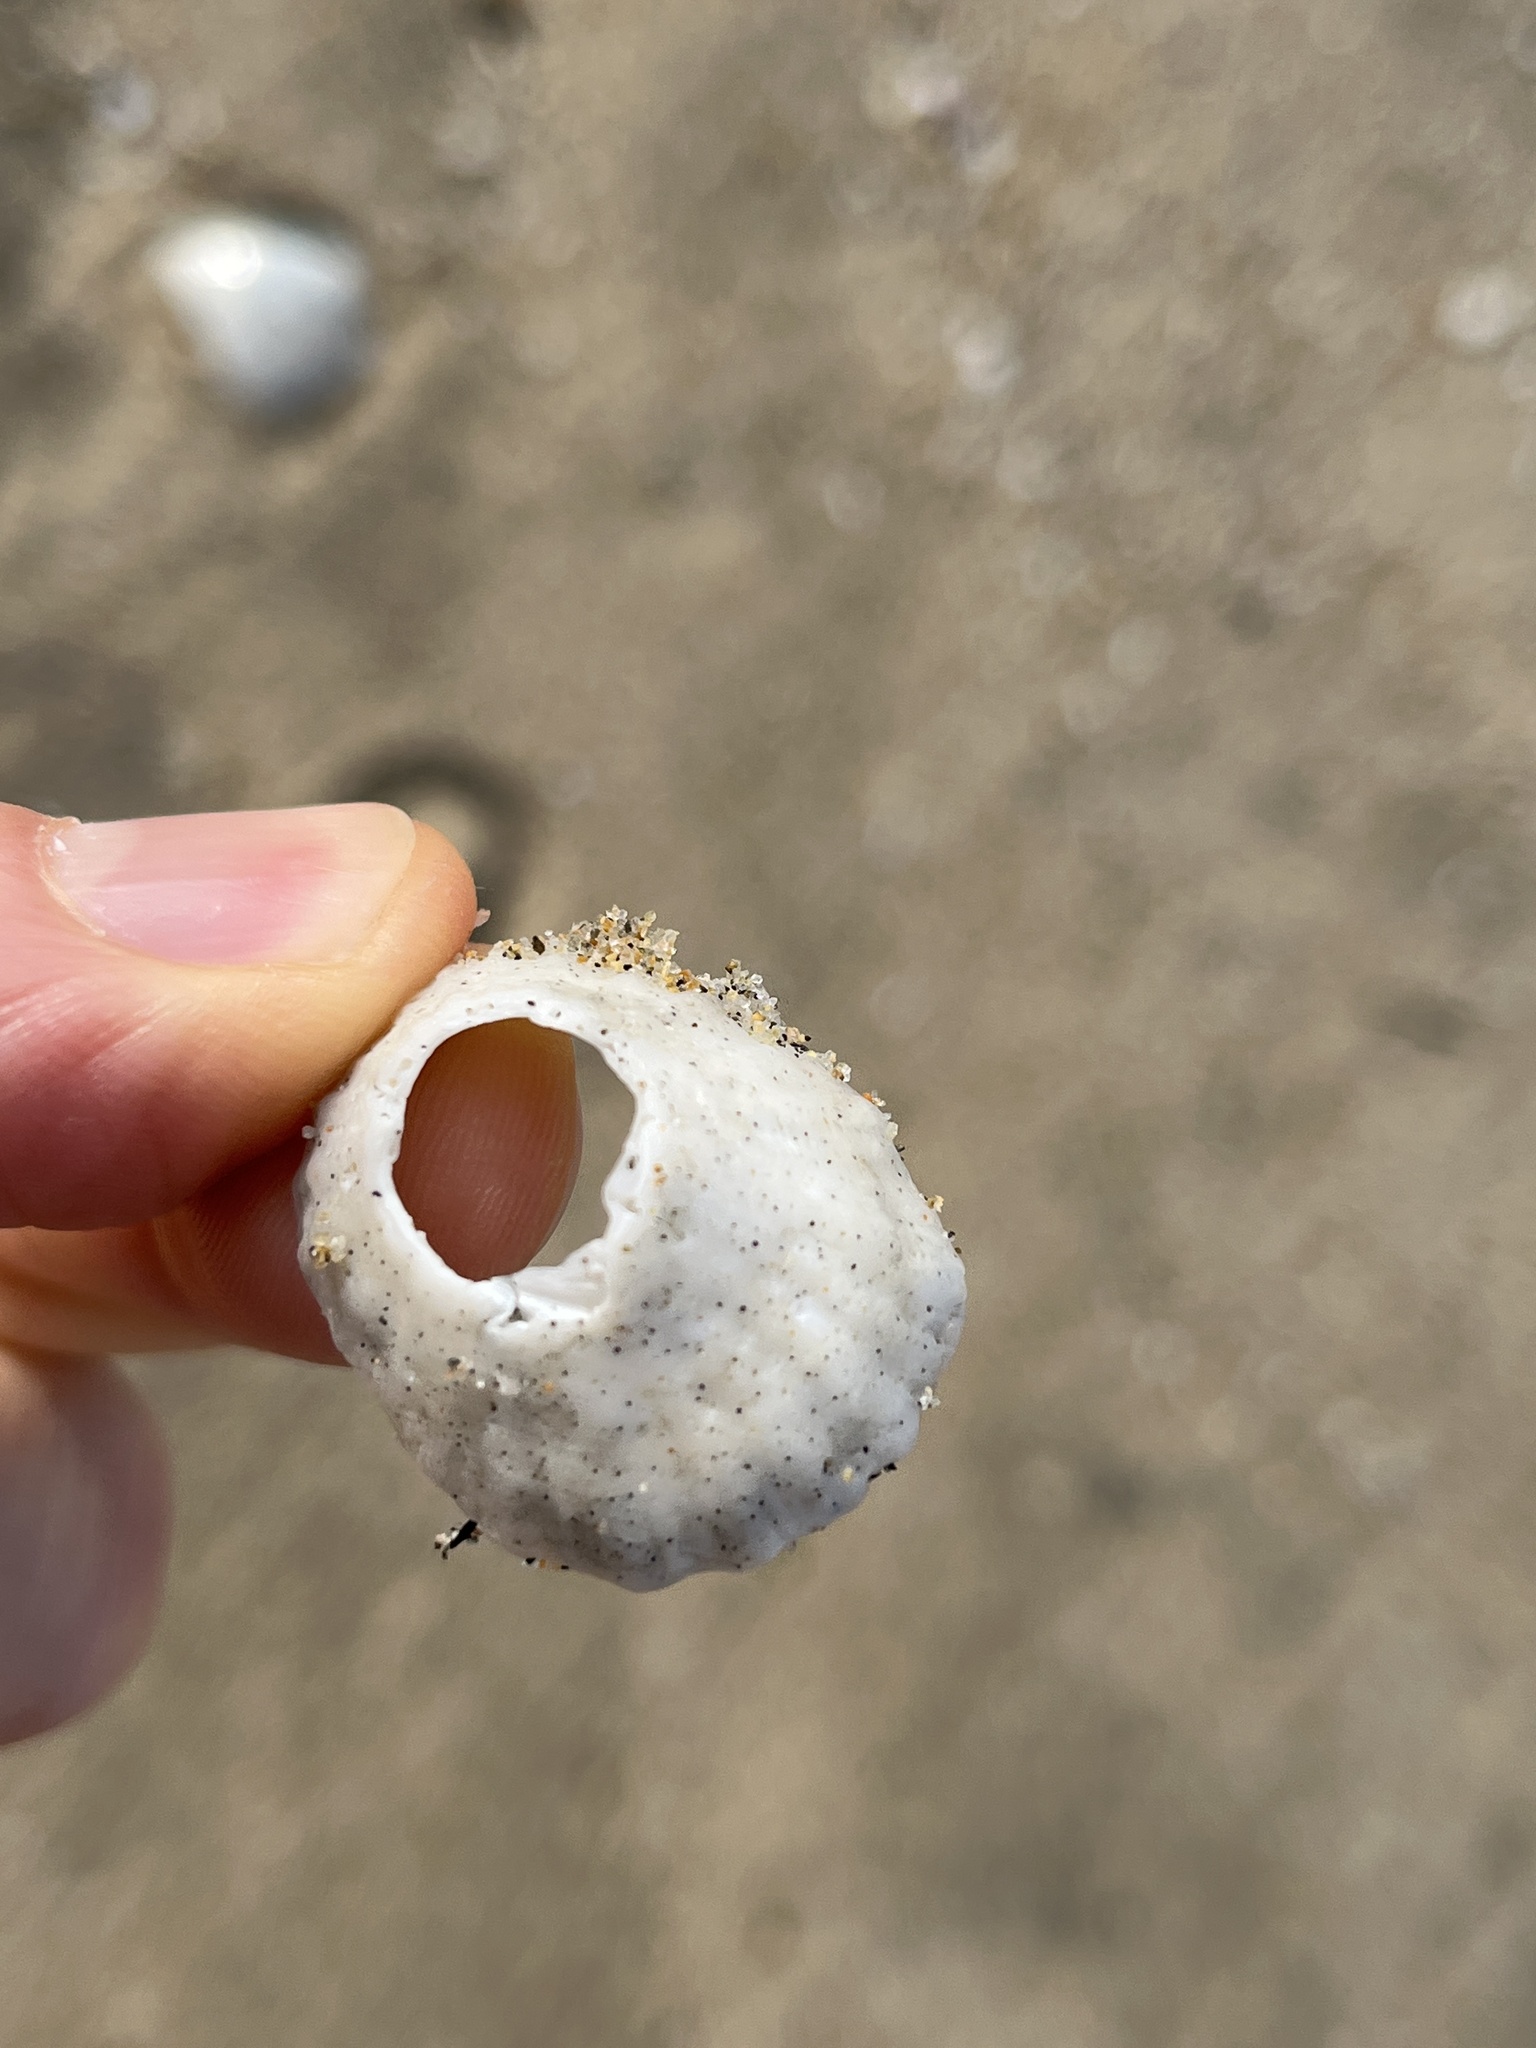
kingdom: Animalia
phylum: Mollusca
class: Gastropoda
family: Lottiidae
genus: Niveotectura
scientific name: Niveotectura pallida
